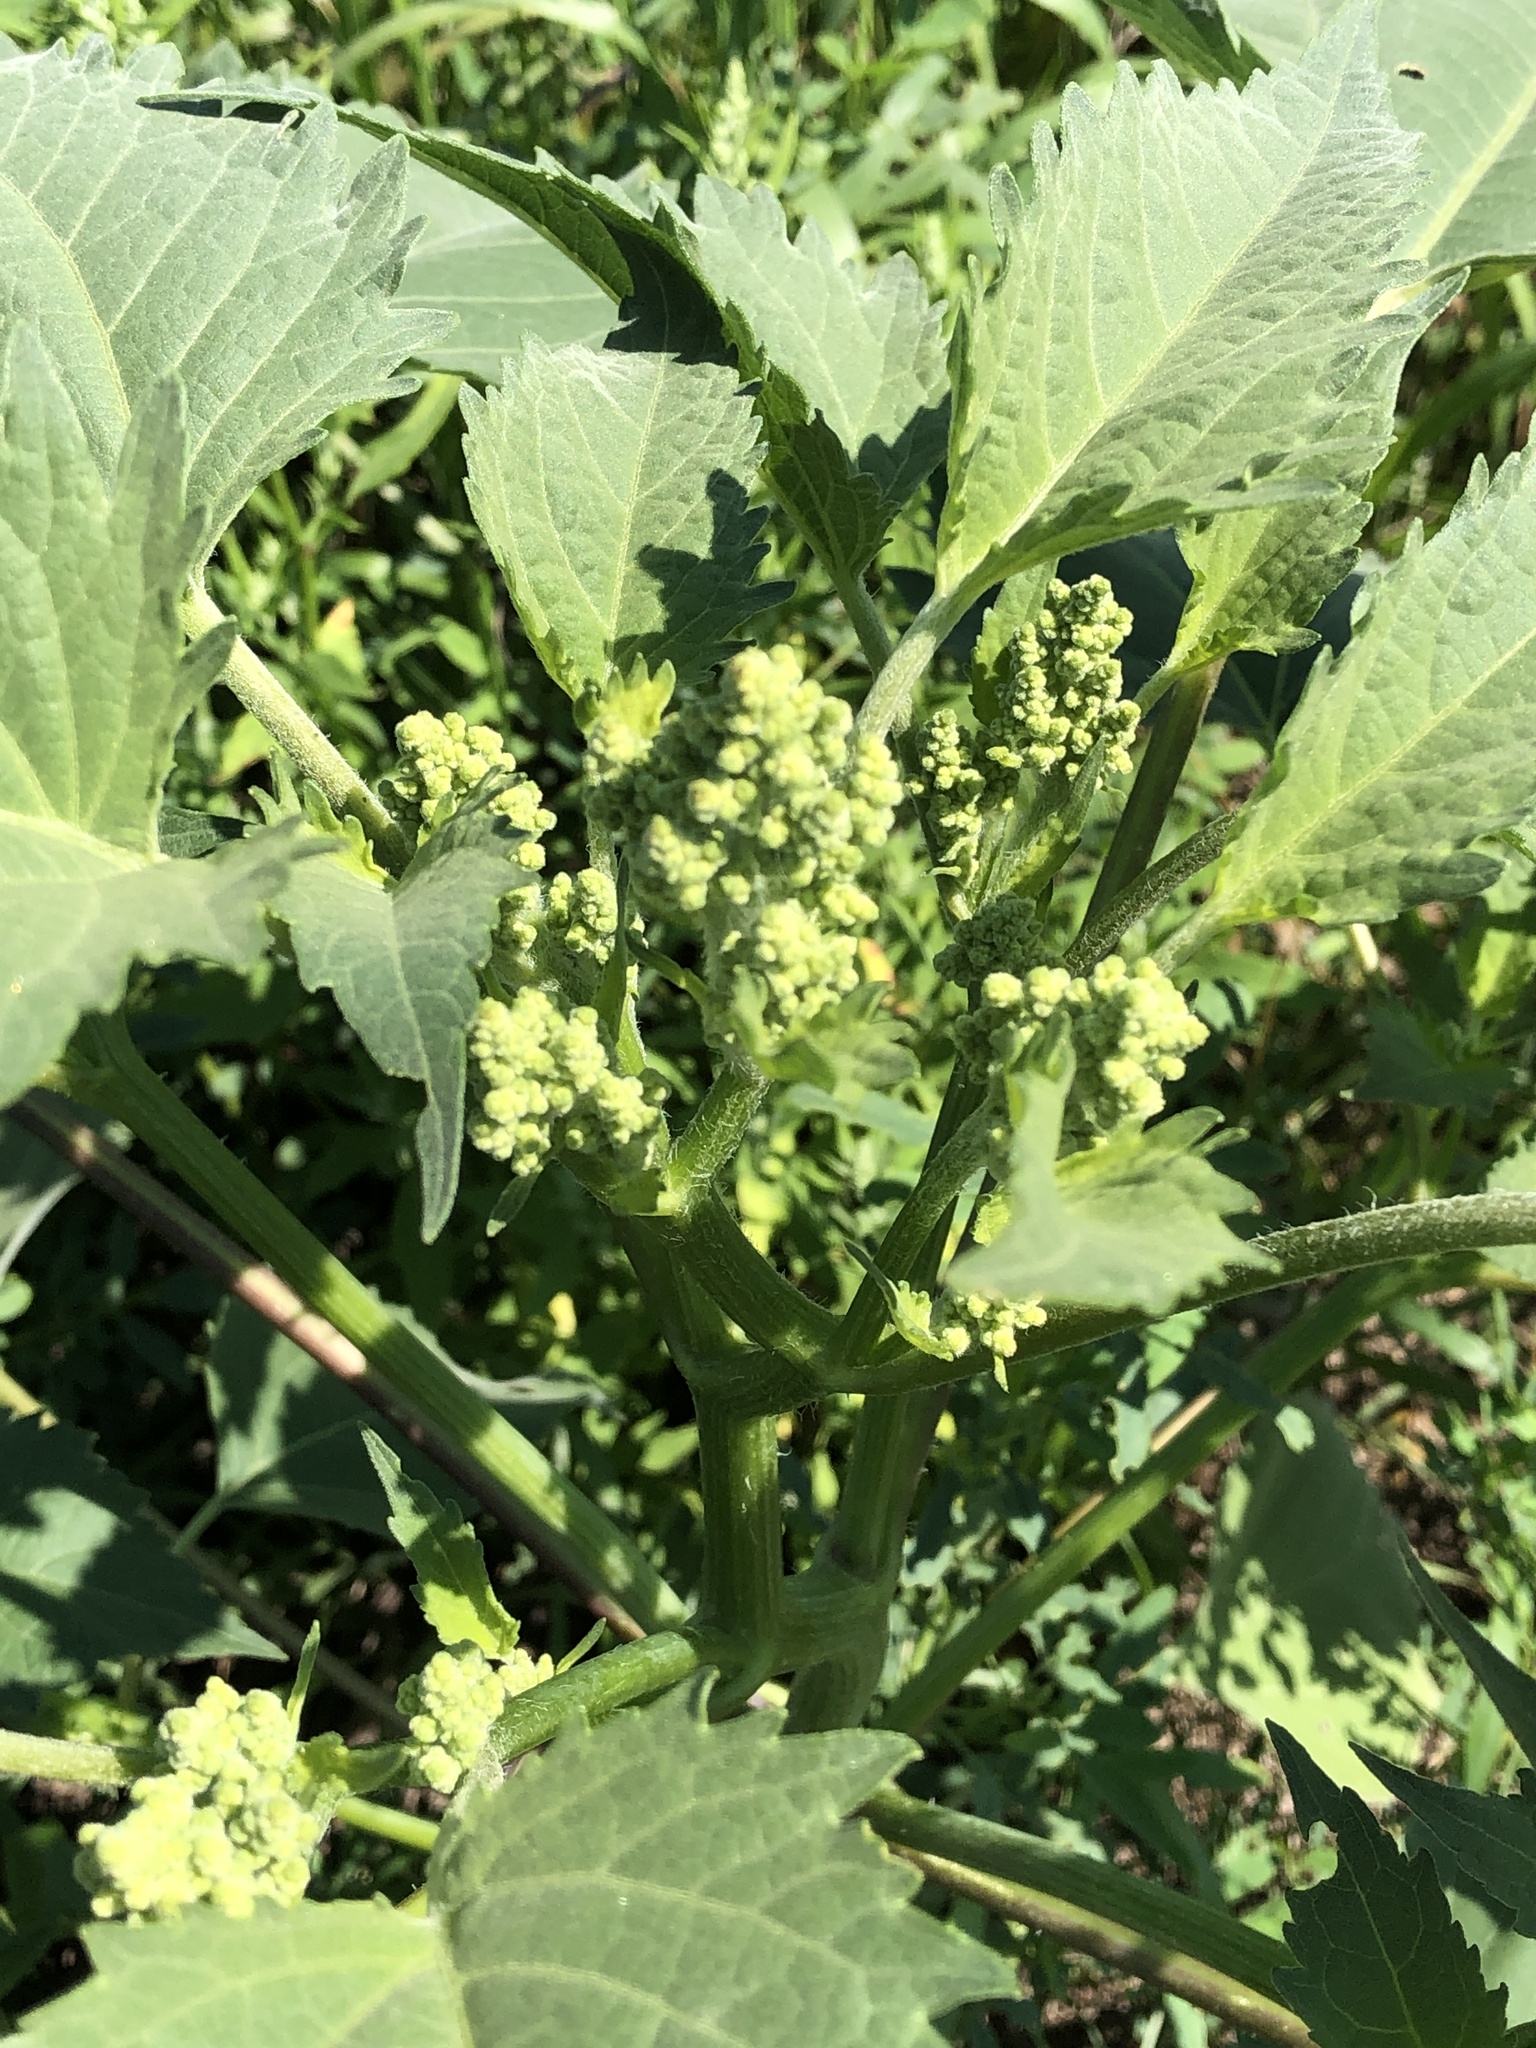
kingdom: Plantae
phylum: Tracheophyta
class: Magnoliopsida
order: Asterales
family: Asteraceae
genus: Cyclachaena
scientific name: Cyclachaena xanthiifolia
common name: Giant sumpweed
